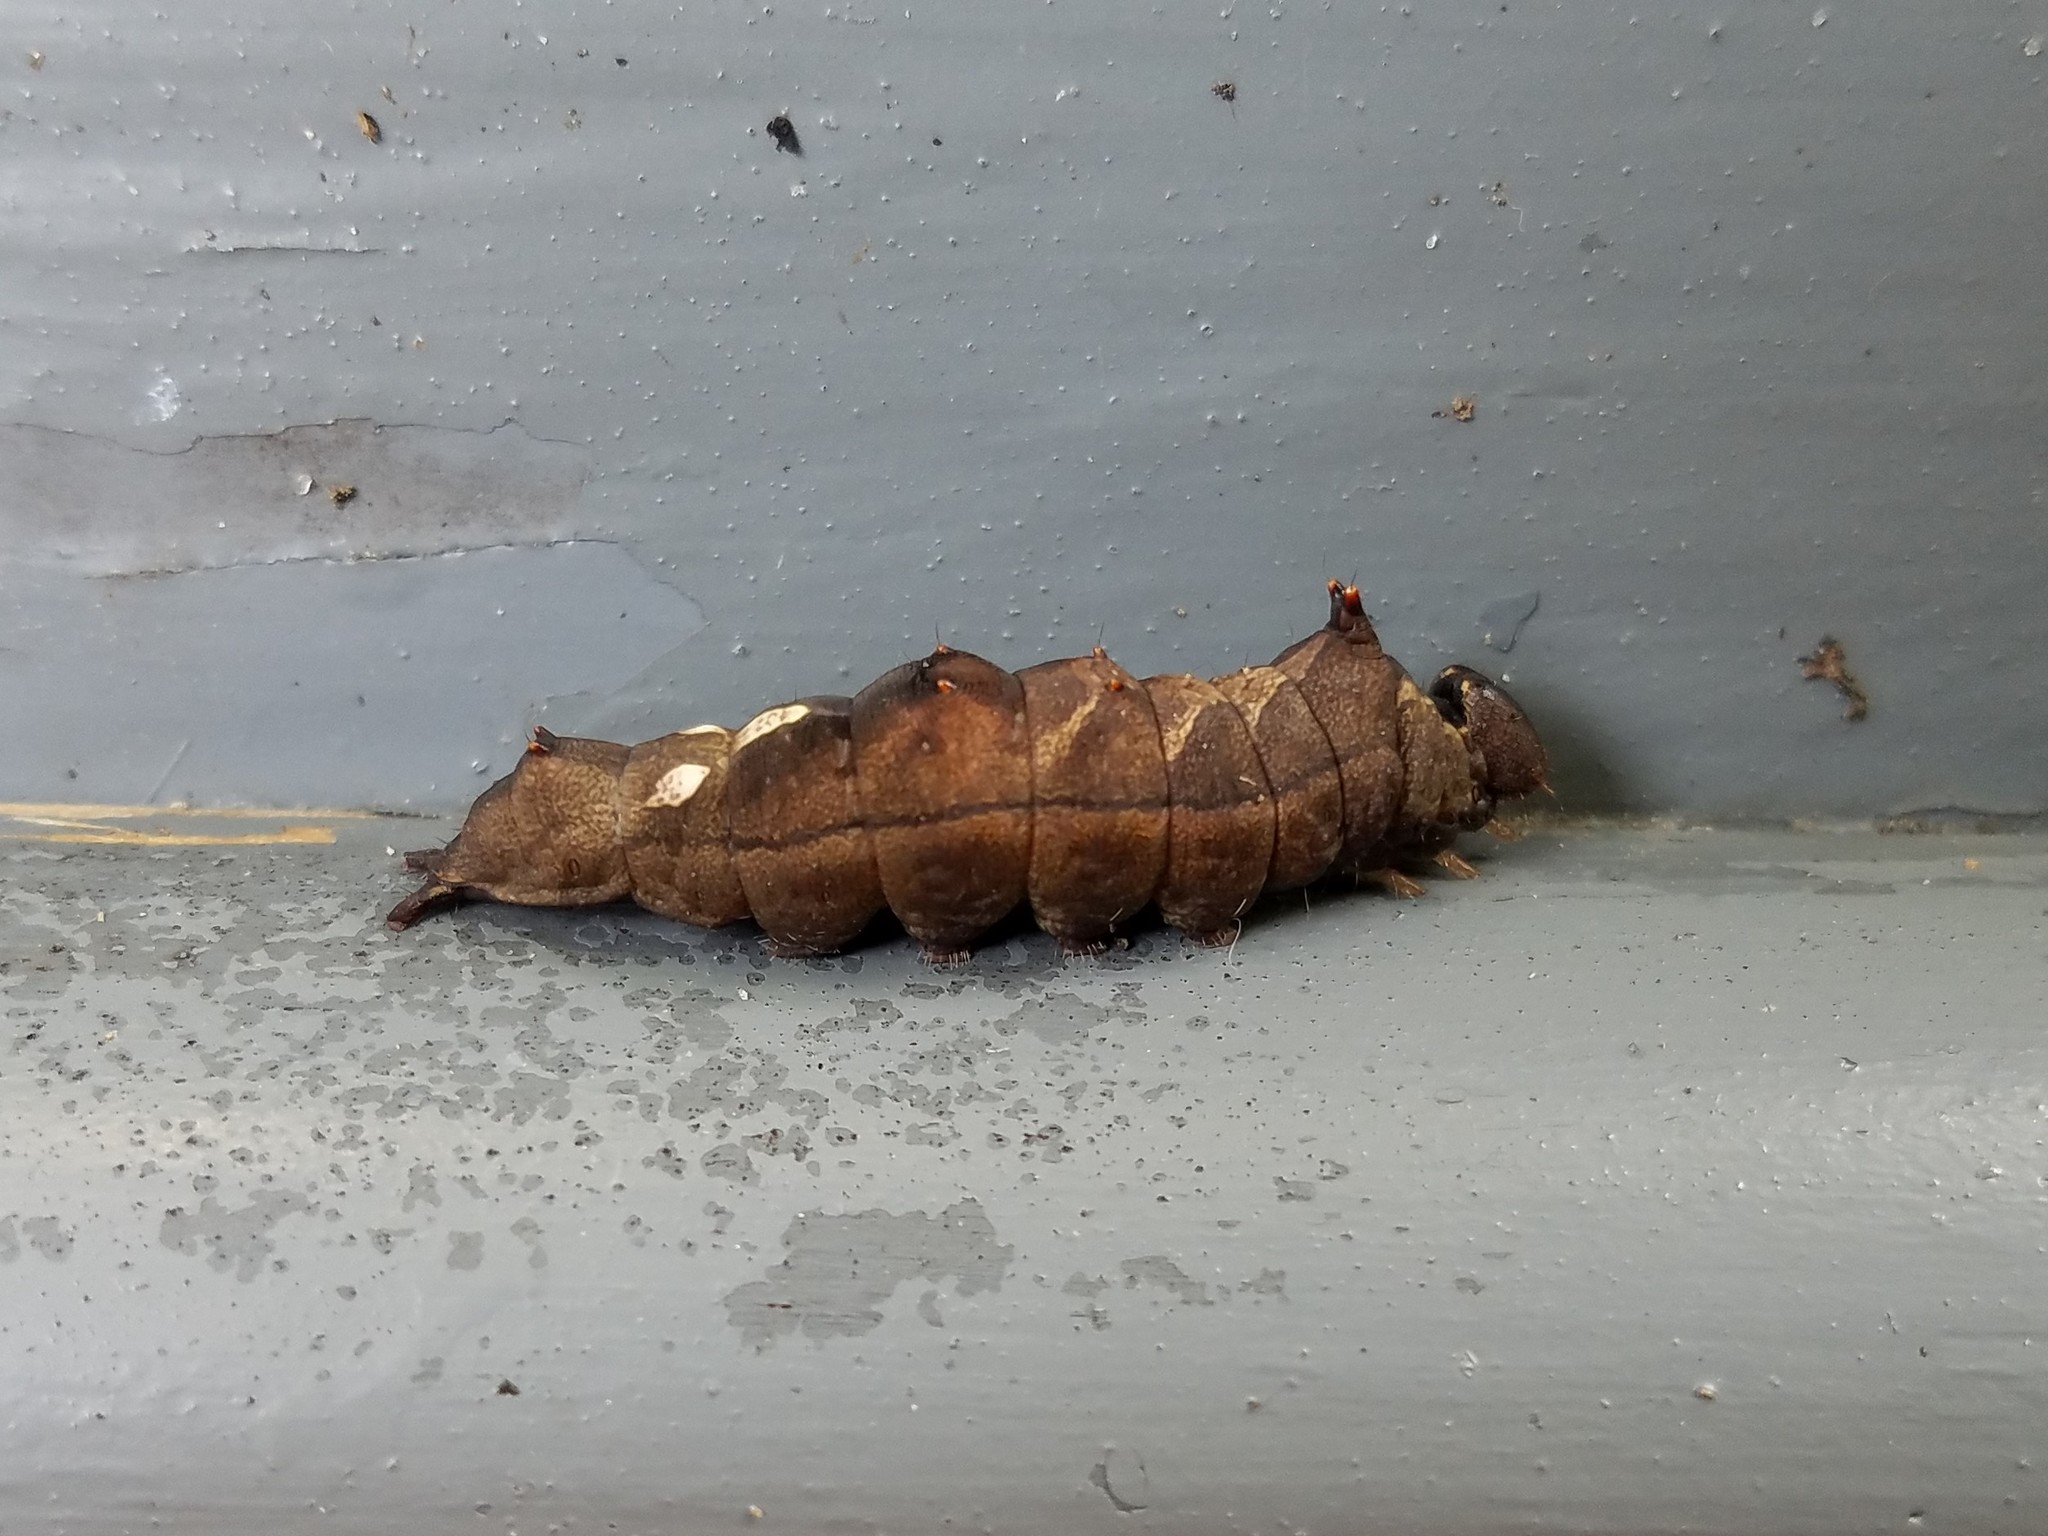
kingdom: Animalia
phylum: Arthropoda
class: Insecta
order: Lepidoptera
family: Notodontidae
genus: Schizura
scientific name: Schizura
